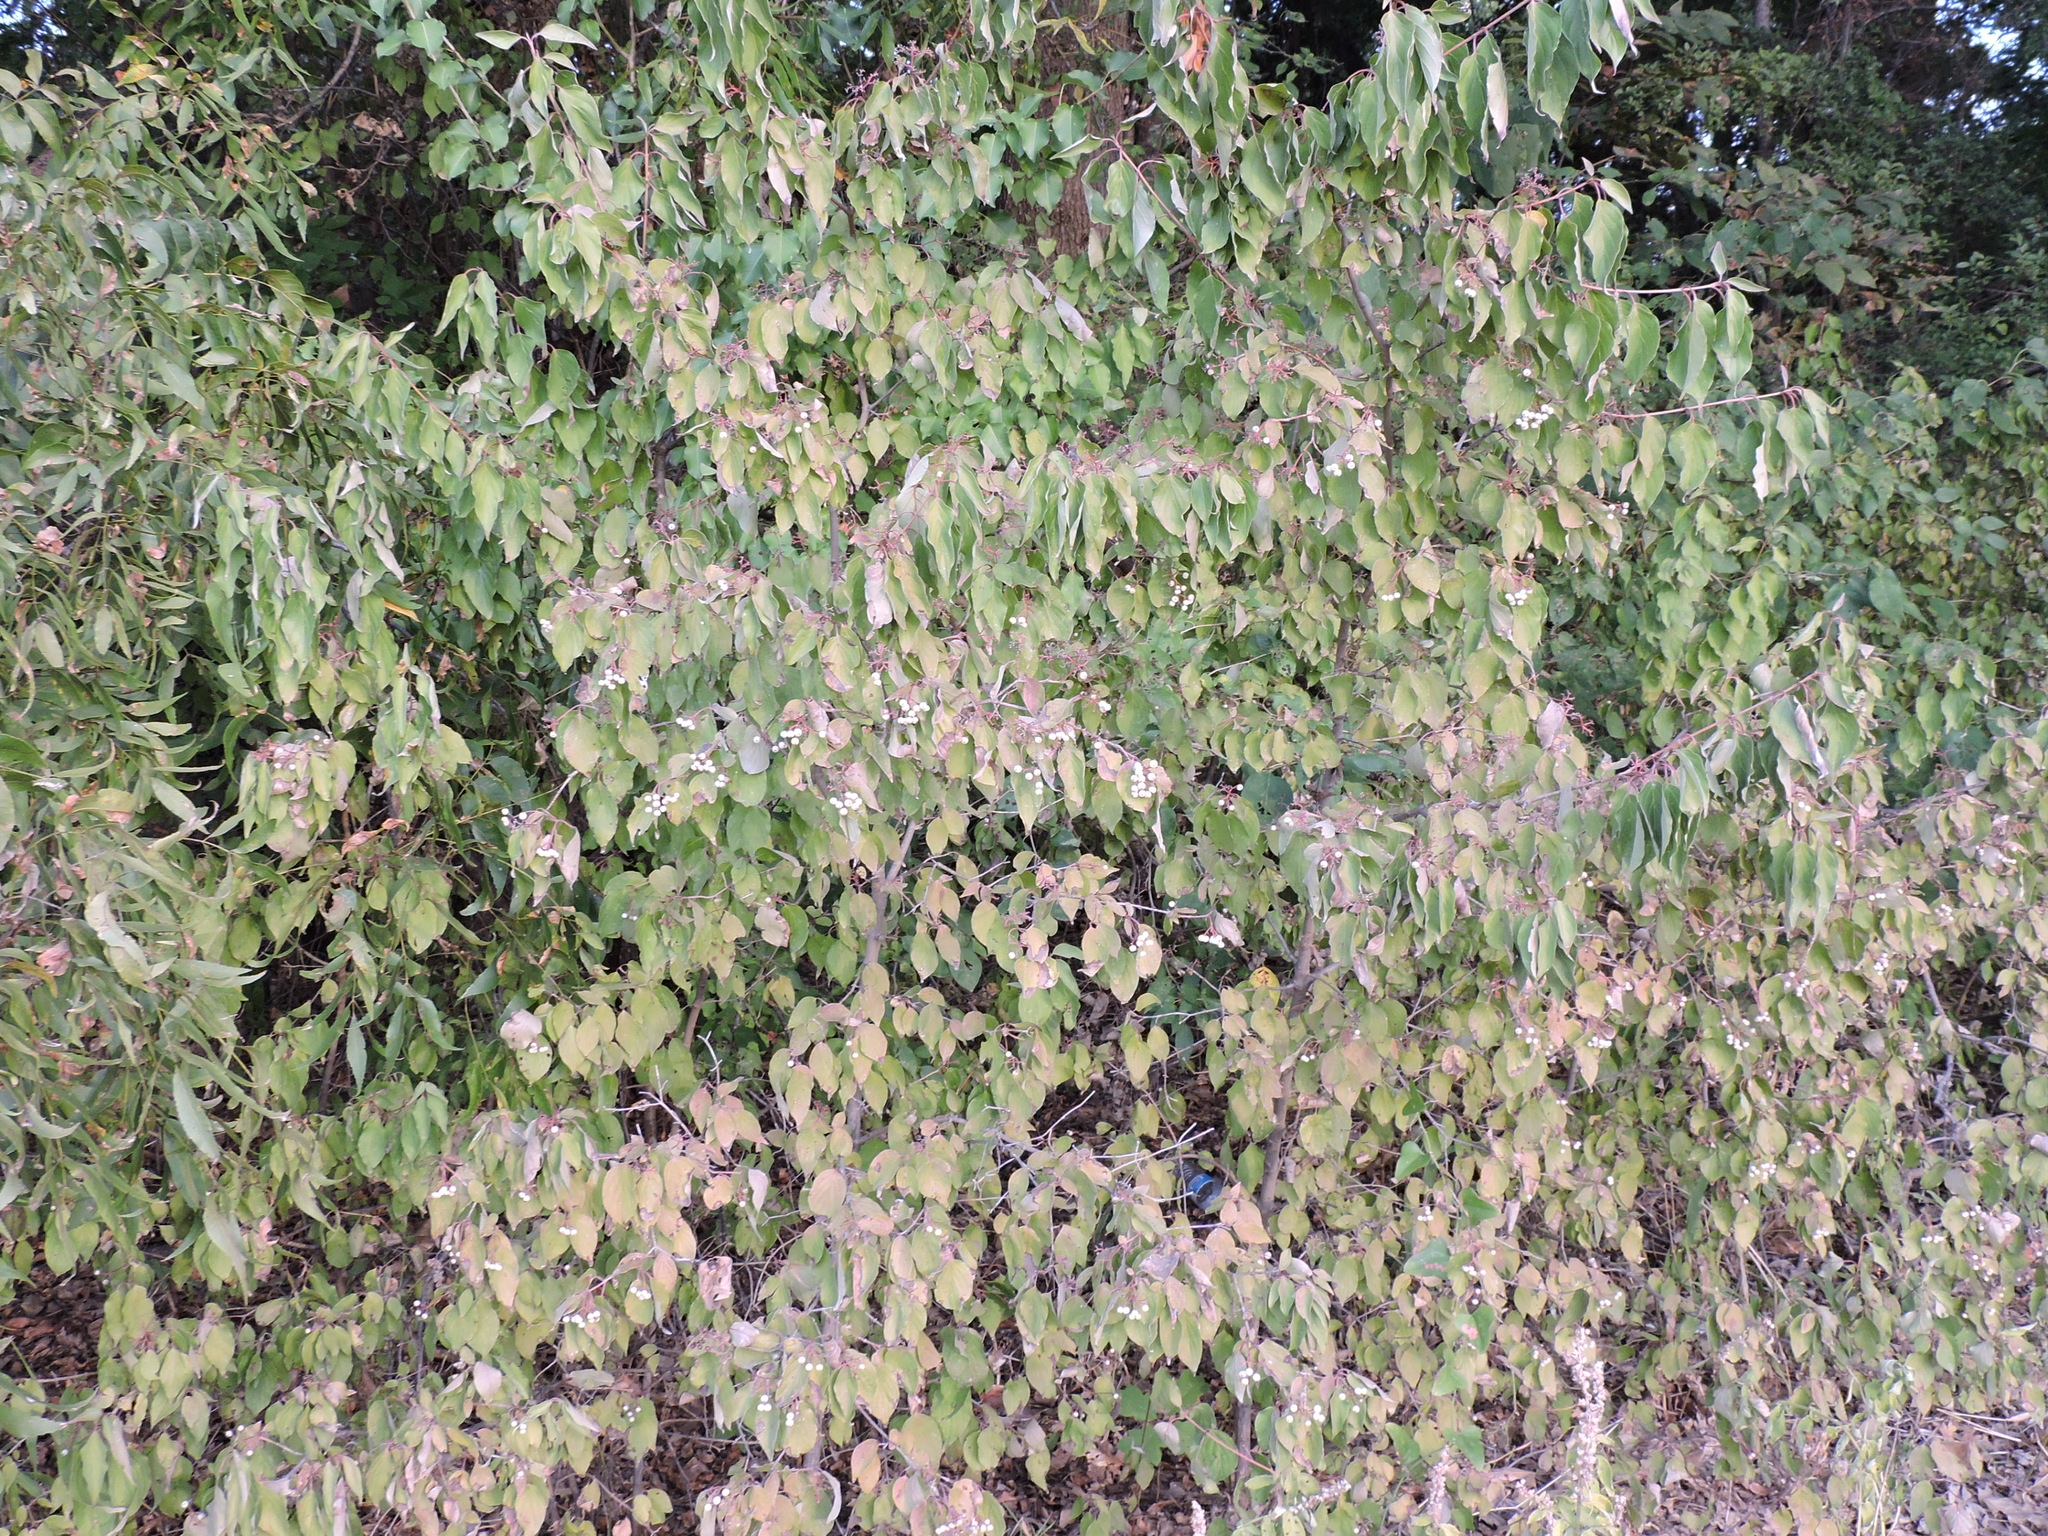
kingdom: Plantae
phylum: Tracheophyta
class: Magnoliopsida
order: Cornales
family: Cornaceae
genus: Cornus
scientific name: Cornus drummondii
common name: Rough-leaf dogwood
